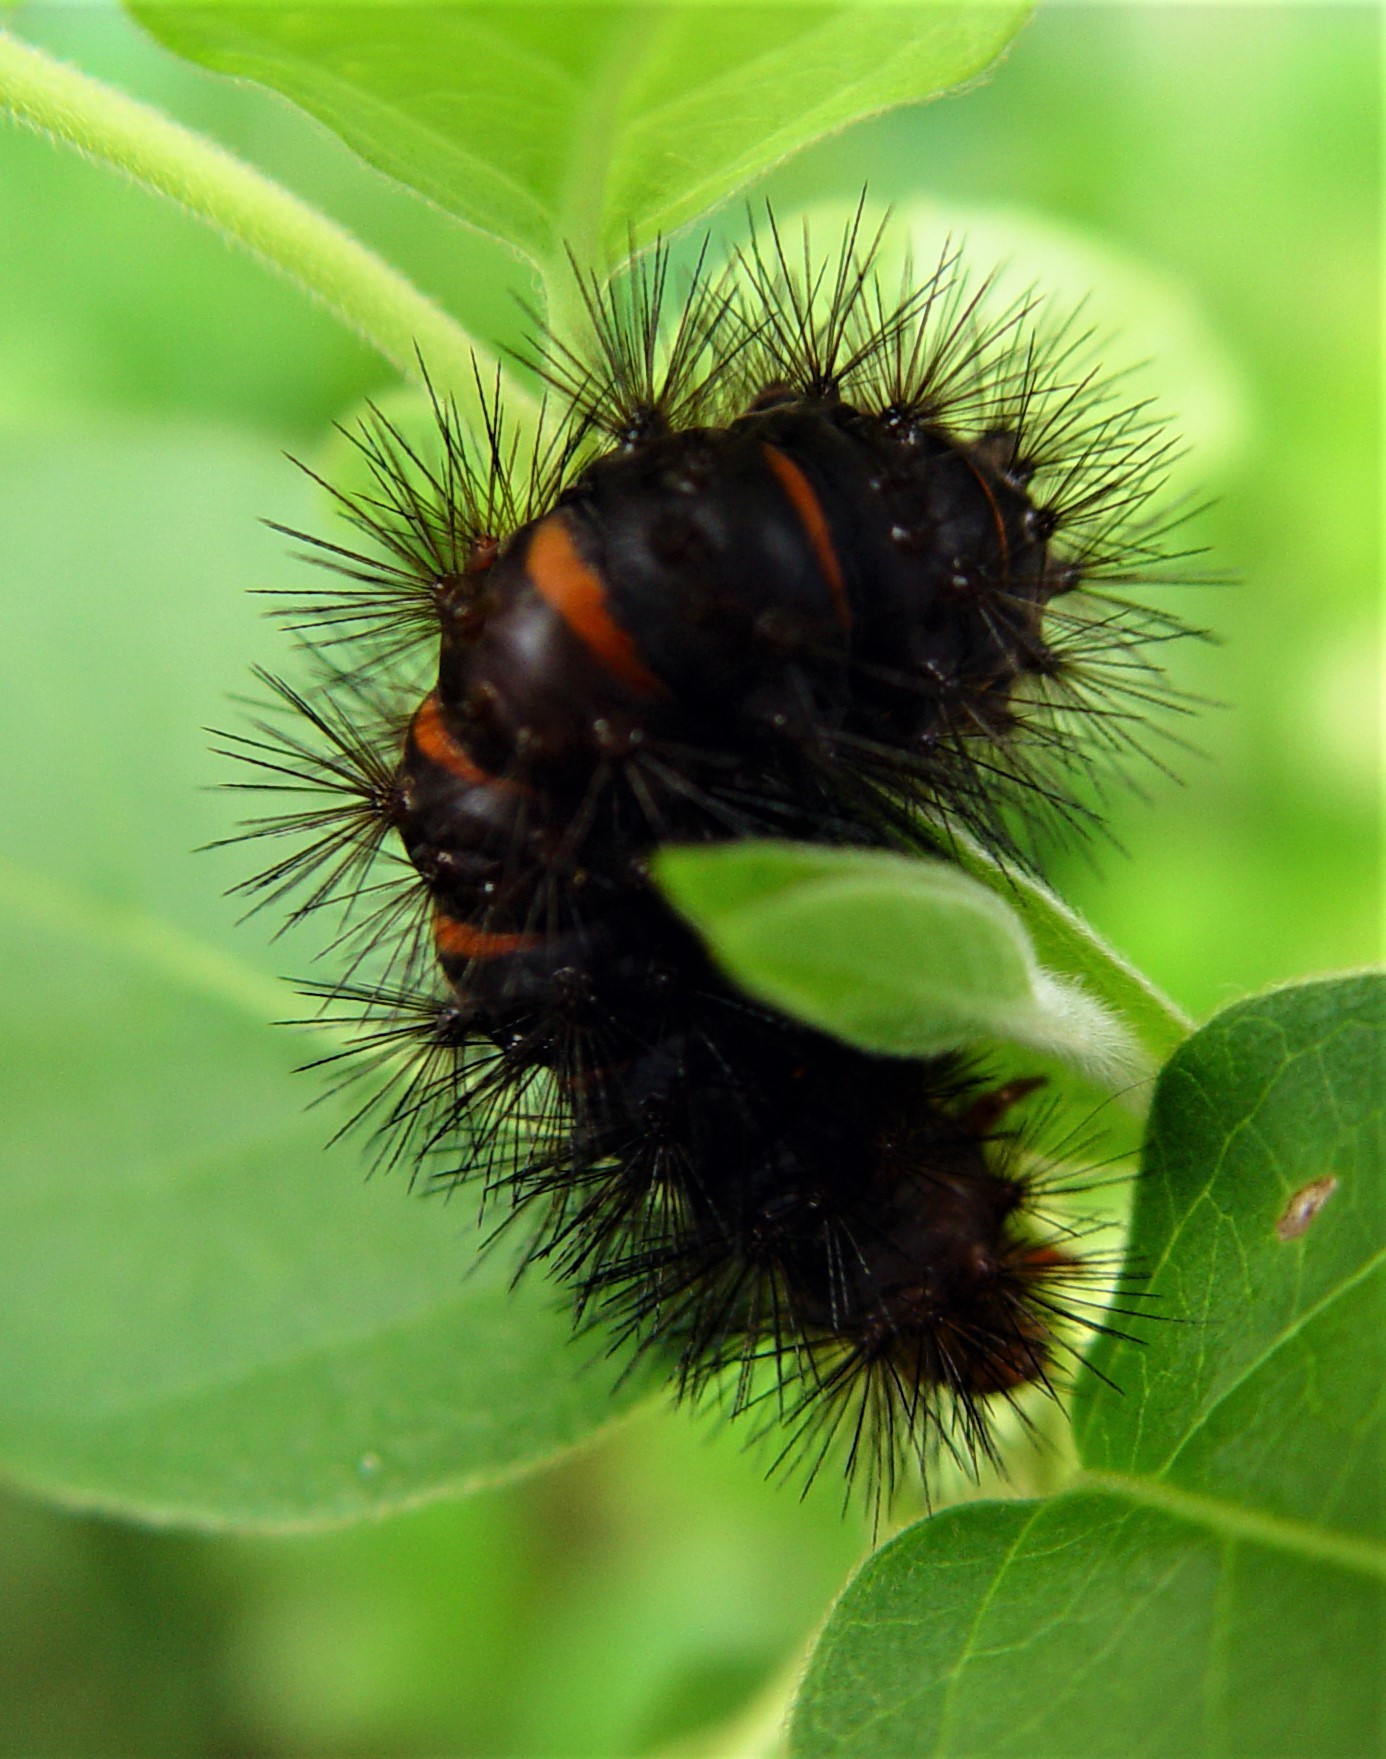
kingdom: Animalia
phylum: Arthropoda
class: Insecta
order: Lepidoptera
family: Erebidae
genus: Hypercompe
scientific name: Hypercompe scribonia
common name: Giant leopard moth
